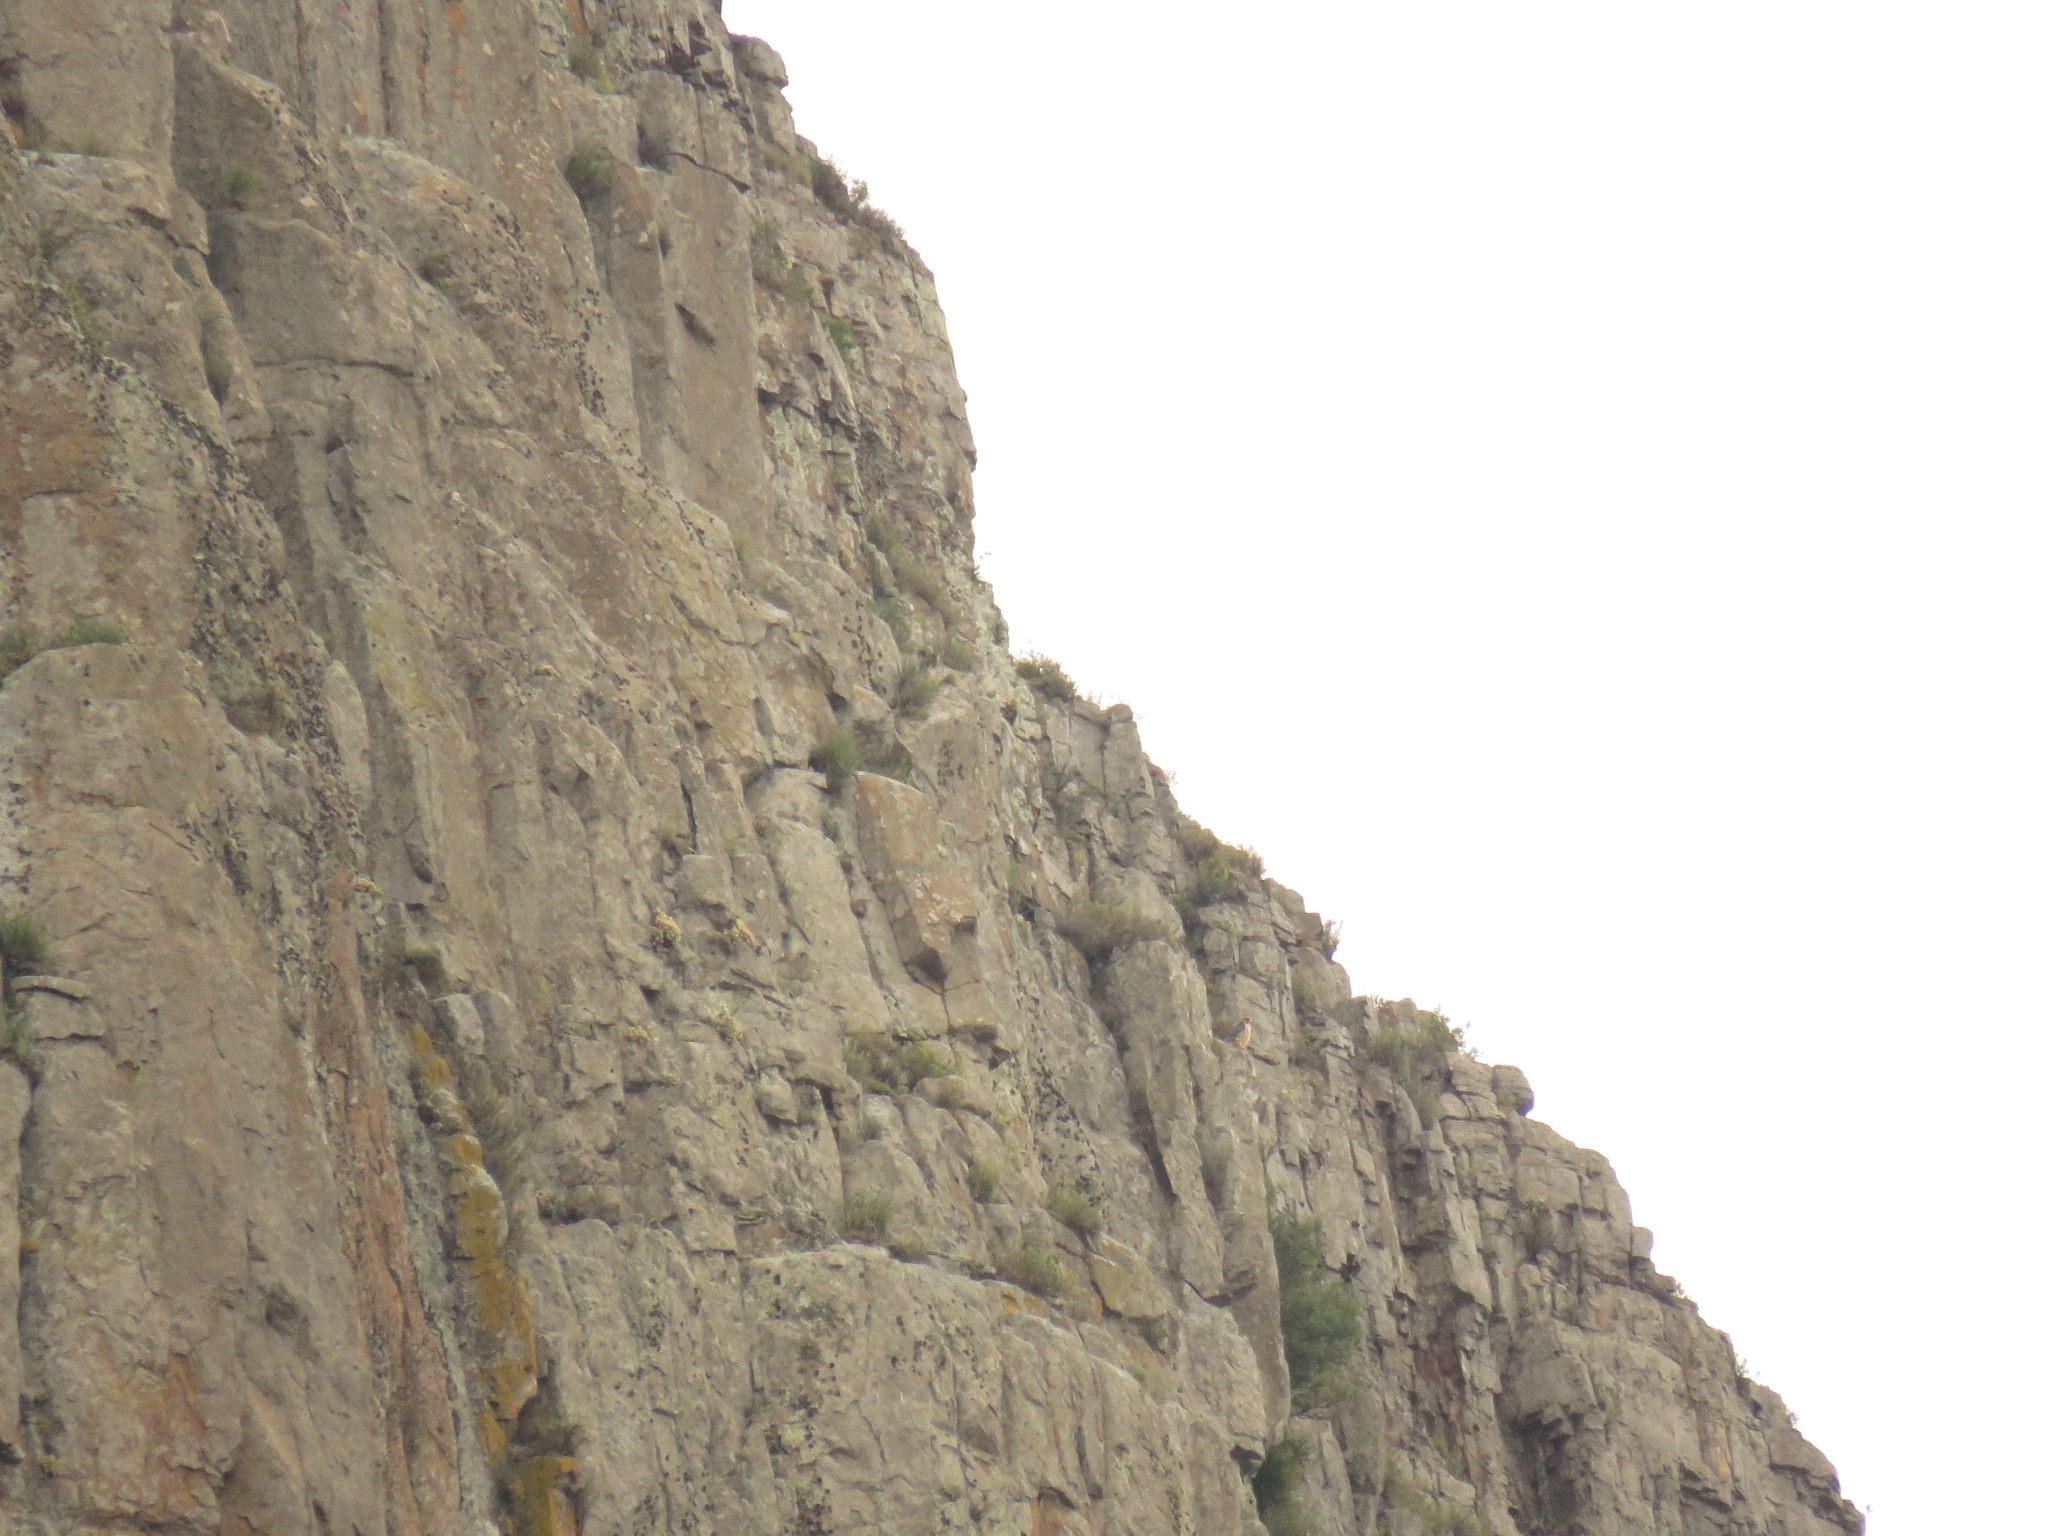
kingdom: Animalia
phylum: Chordata
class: Aves
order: Falconiformes
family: Falconidae
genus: Falco
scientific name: Falco biarmicus
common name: Lanner falcon
